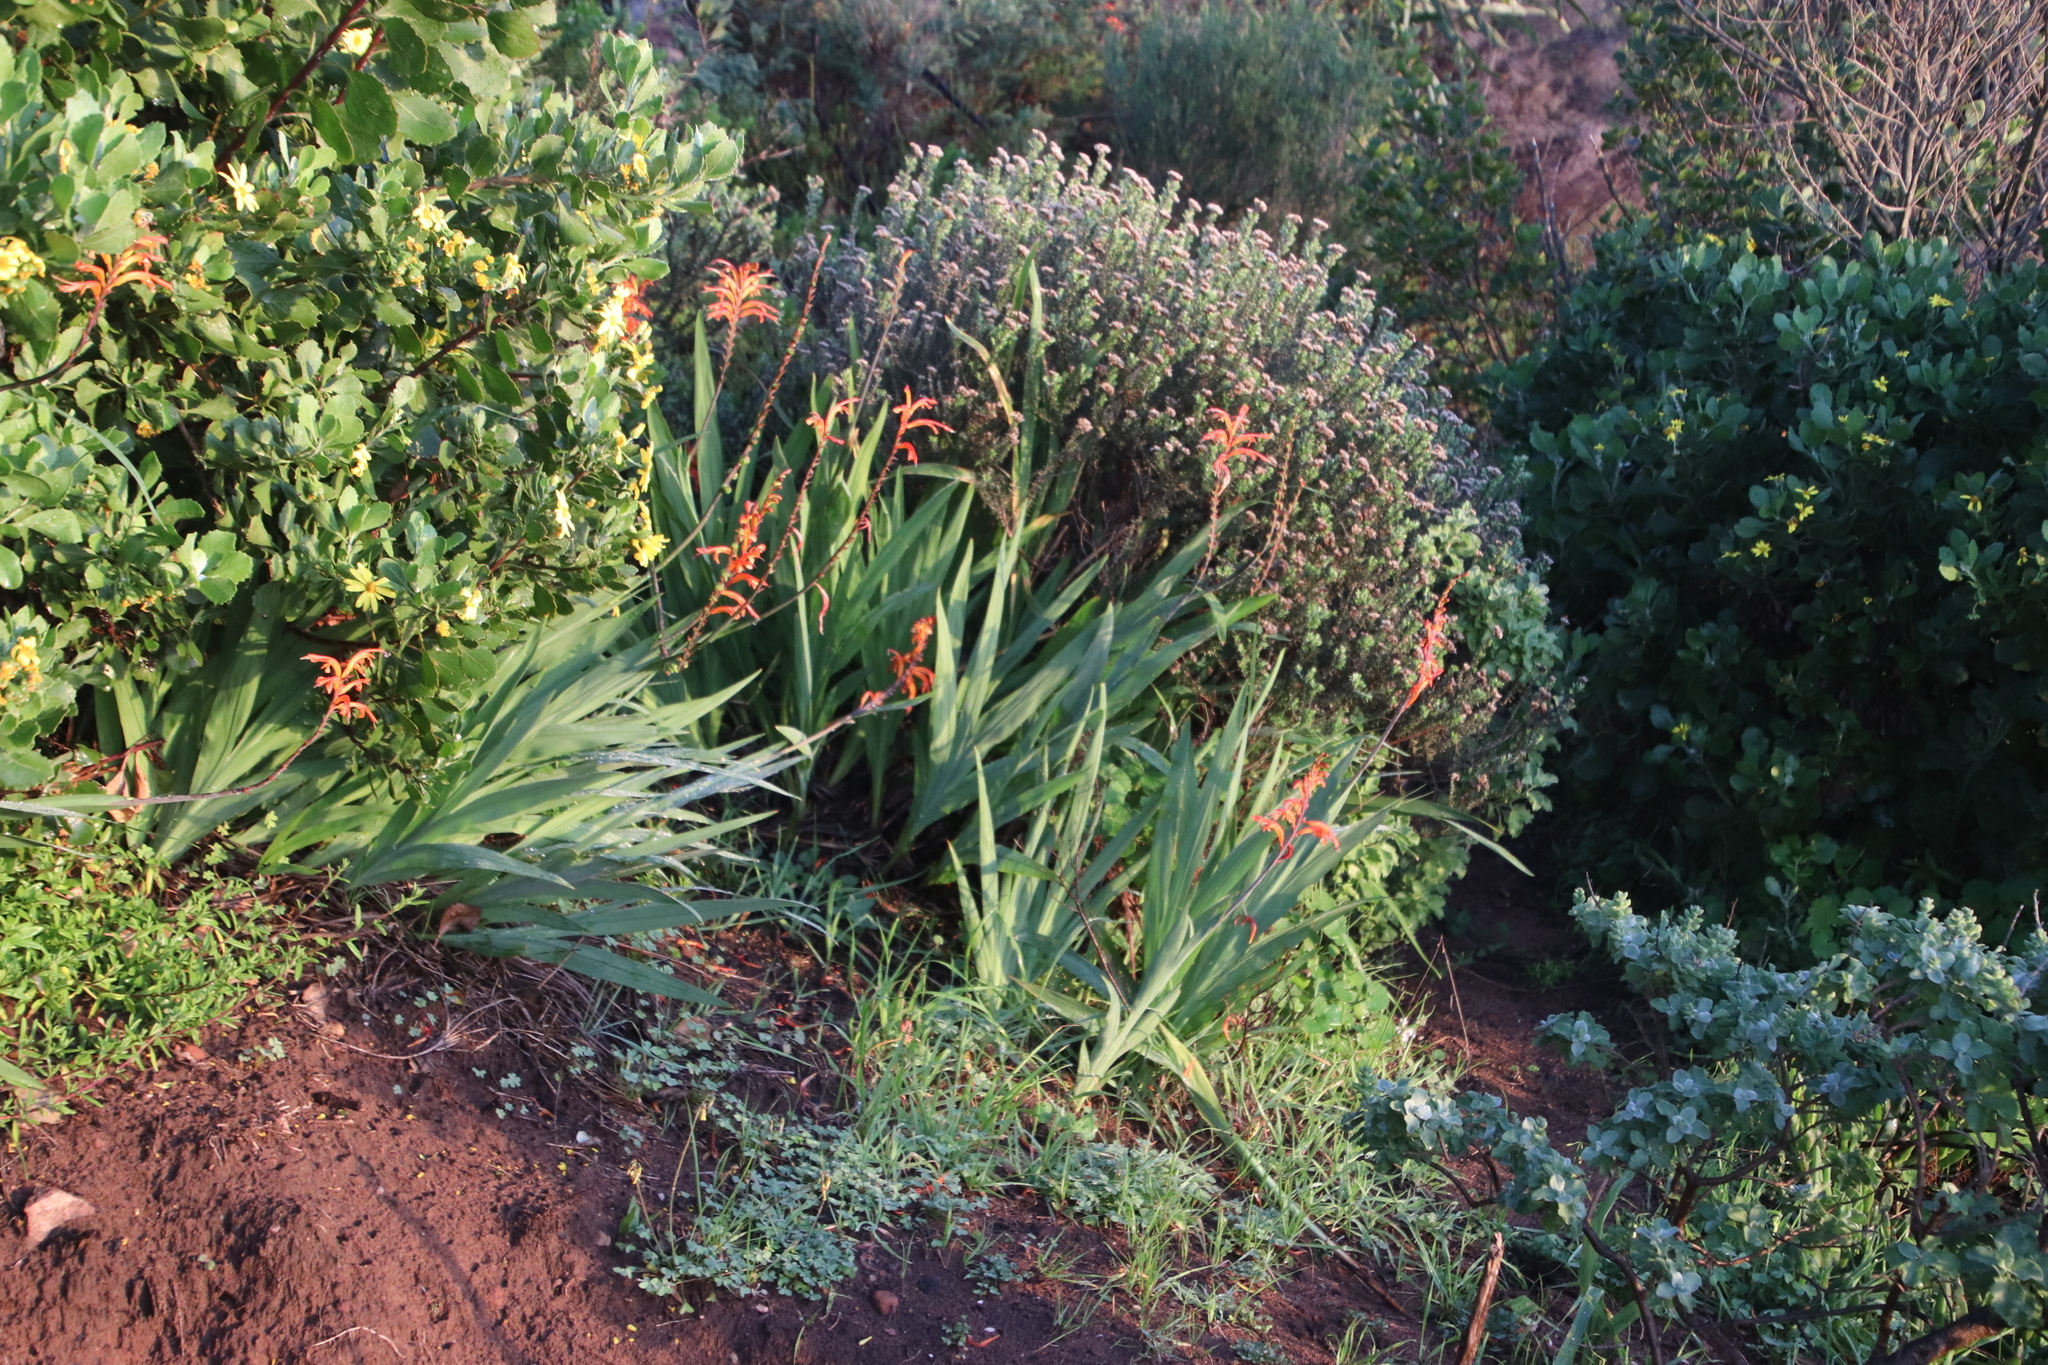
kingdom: Plantae
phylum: Tracheophyta
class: Liliopsida
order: Asparagales
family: Iridaceae
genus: Chasmanthe
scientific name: Chasmanthe aethiopica
